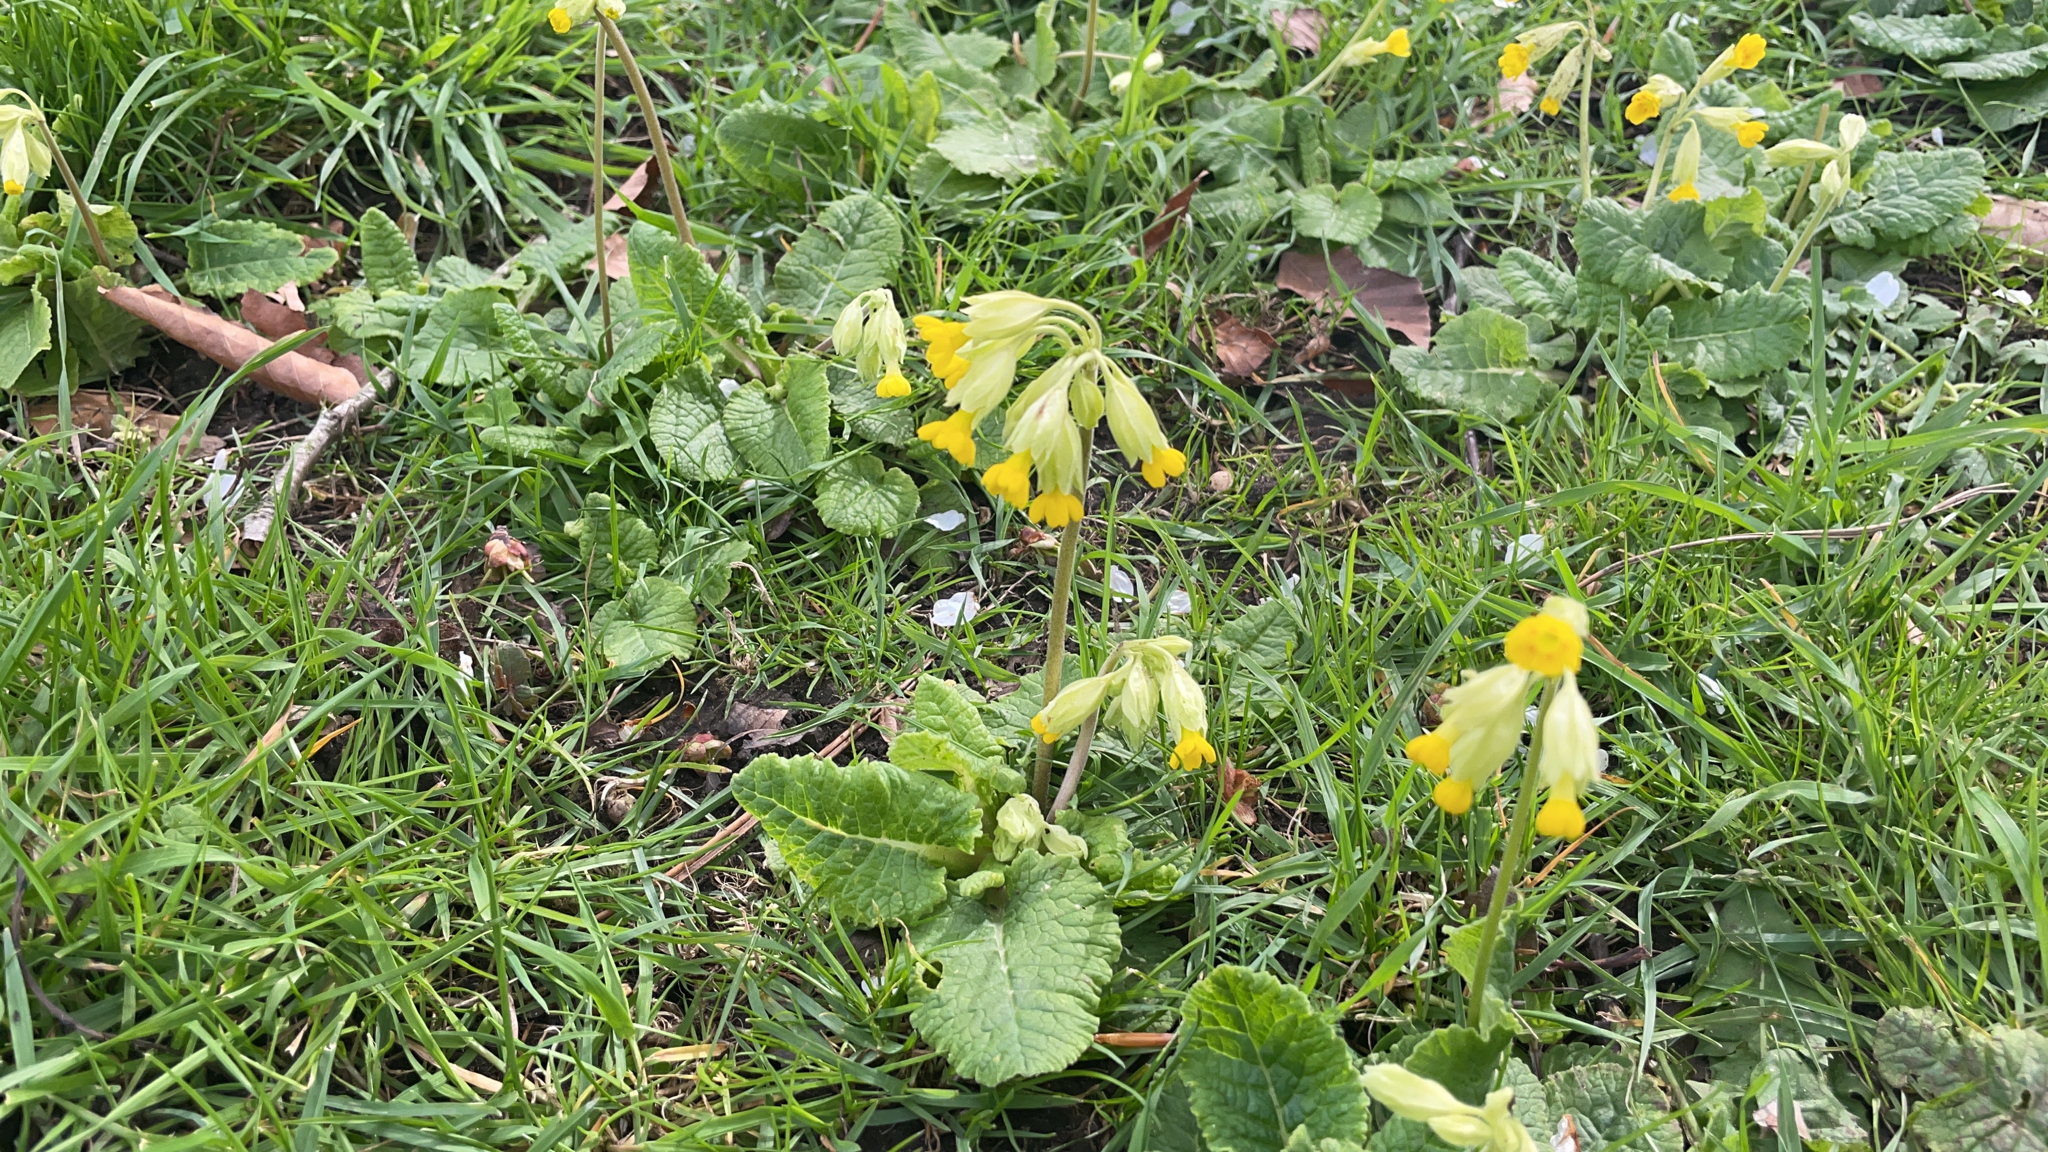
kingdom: Plantae
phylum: Tracheophyta
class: Magnoliopsida
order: Ericales
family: Primulaceae
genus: Primula
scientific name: Primula veris
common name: Cowslip
